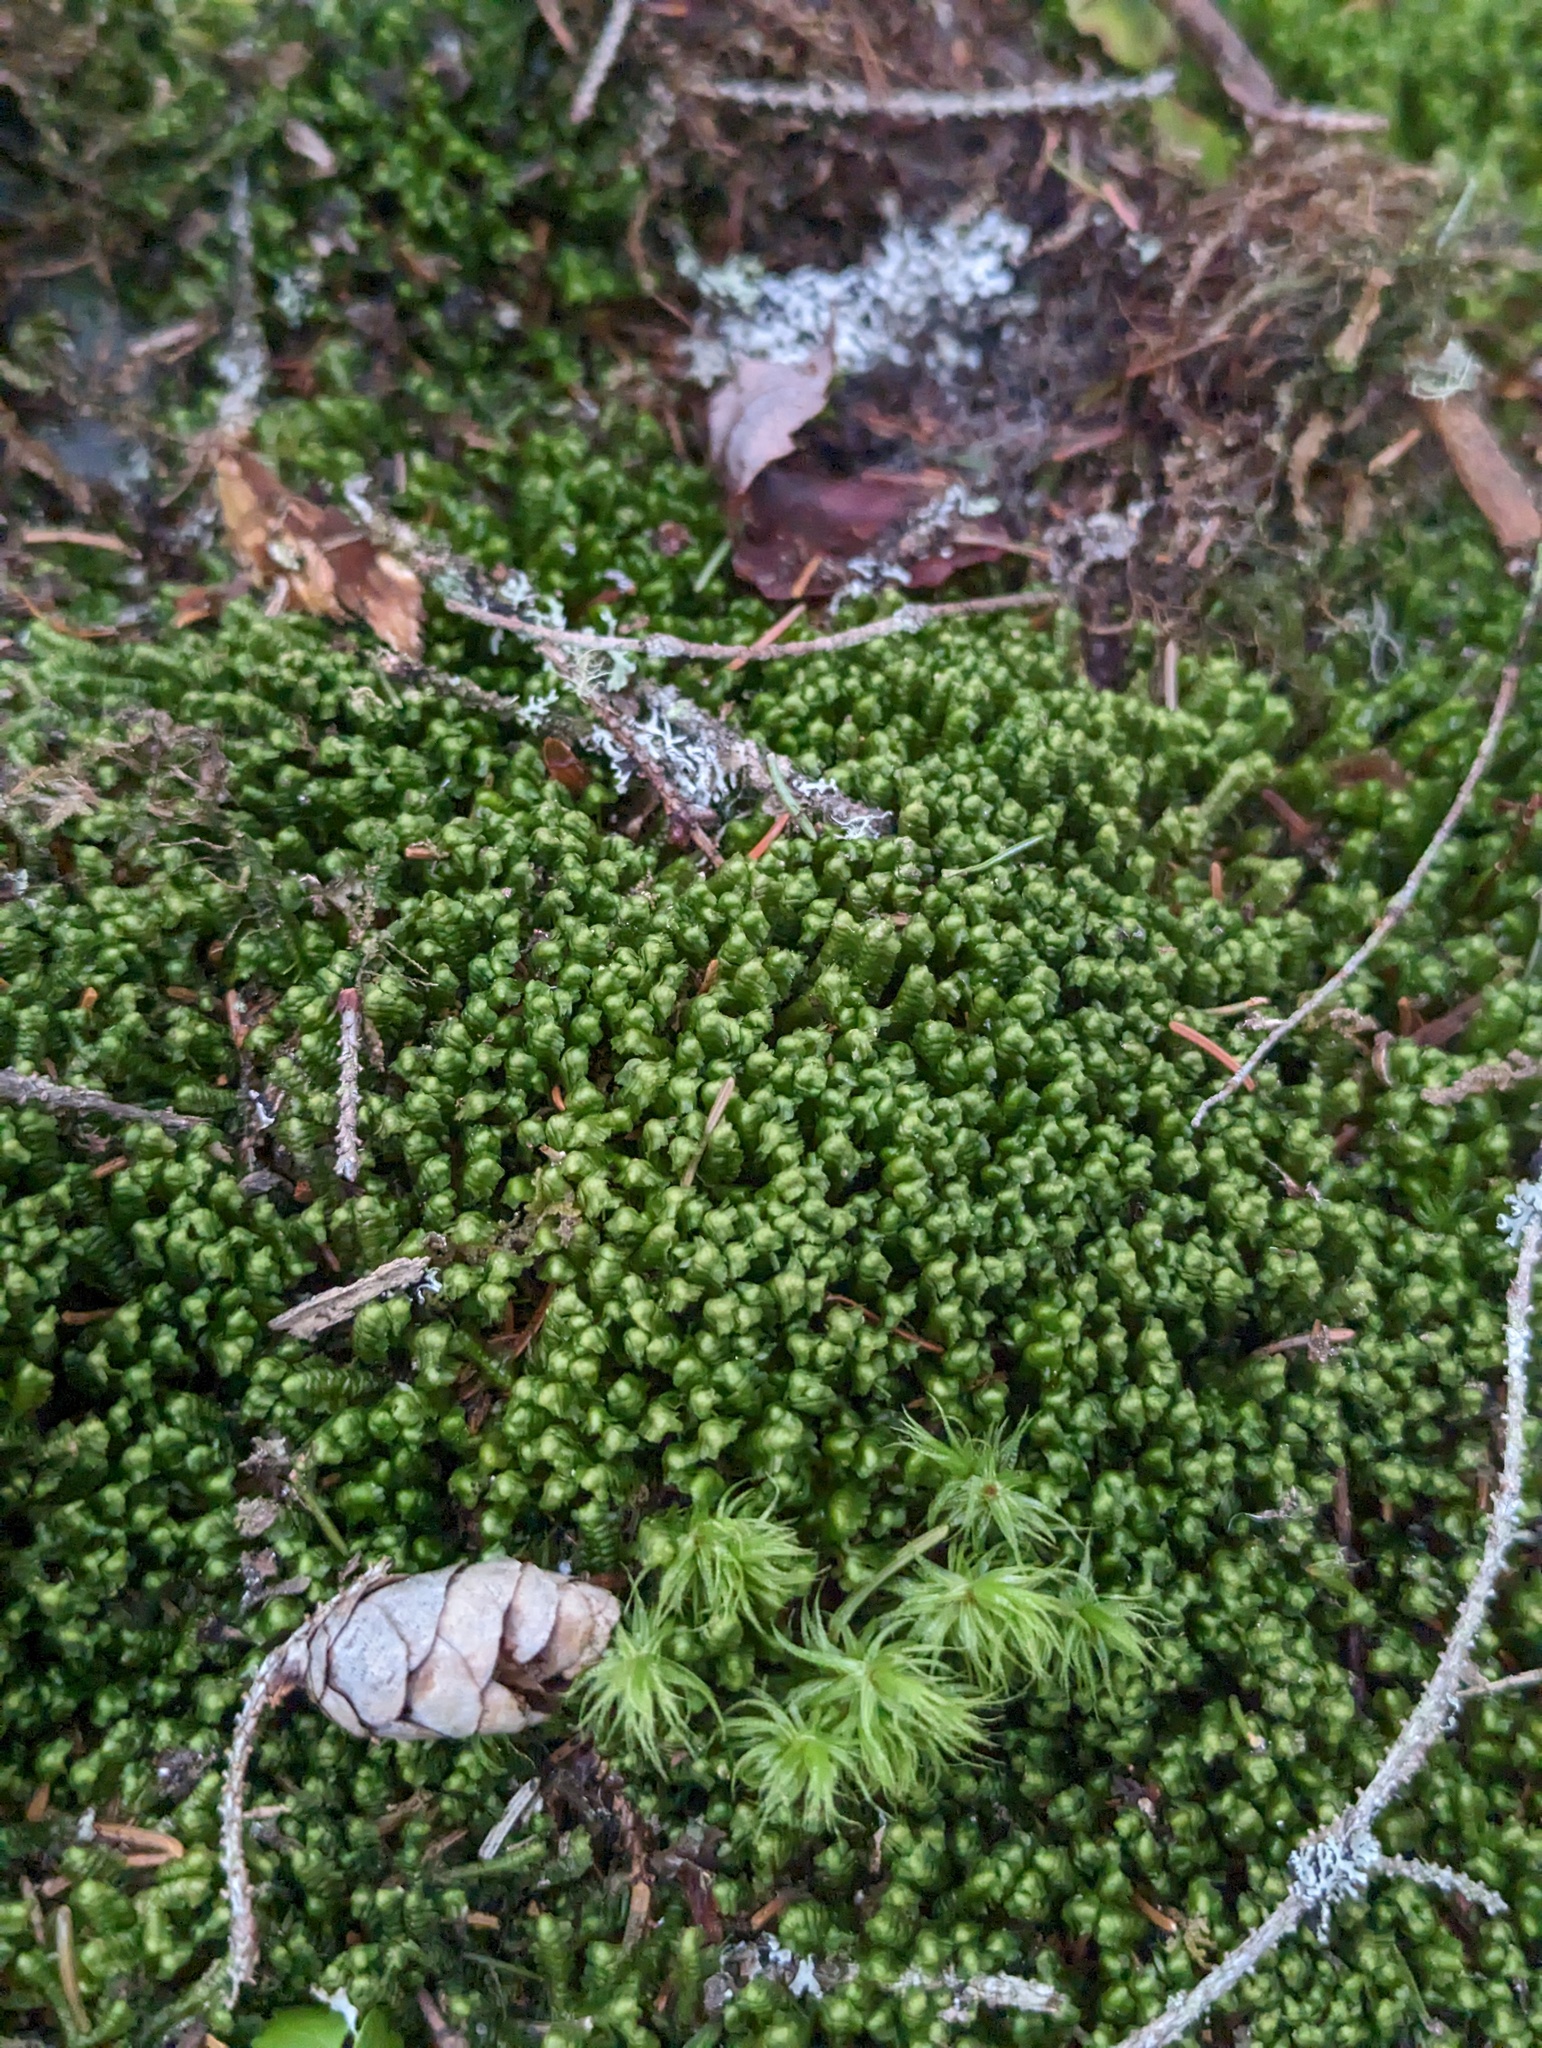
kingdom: Plantae
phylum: Marchantiophyta
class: Jungermanniopsida
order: Jungermanniales
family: Lepidoziaceae
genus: Bazzania
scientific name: Bazzania trilobata
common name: Three-lobed whipwort
